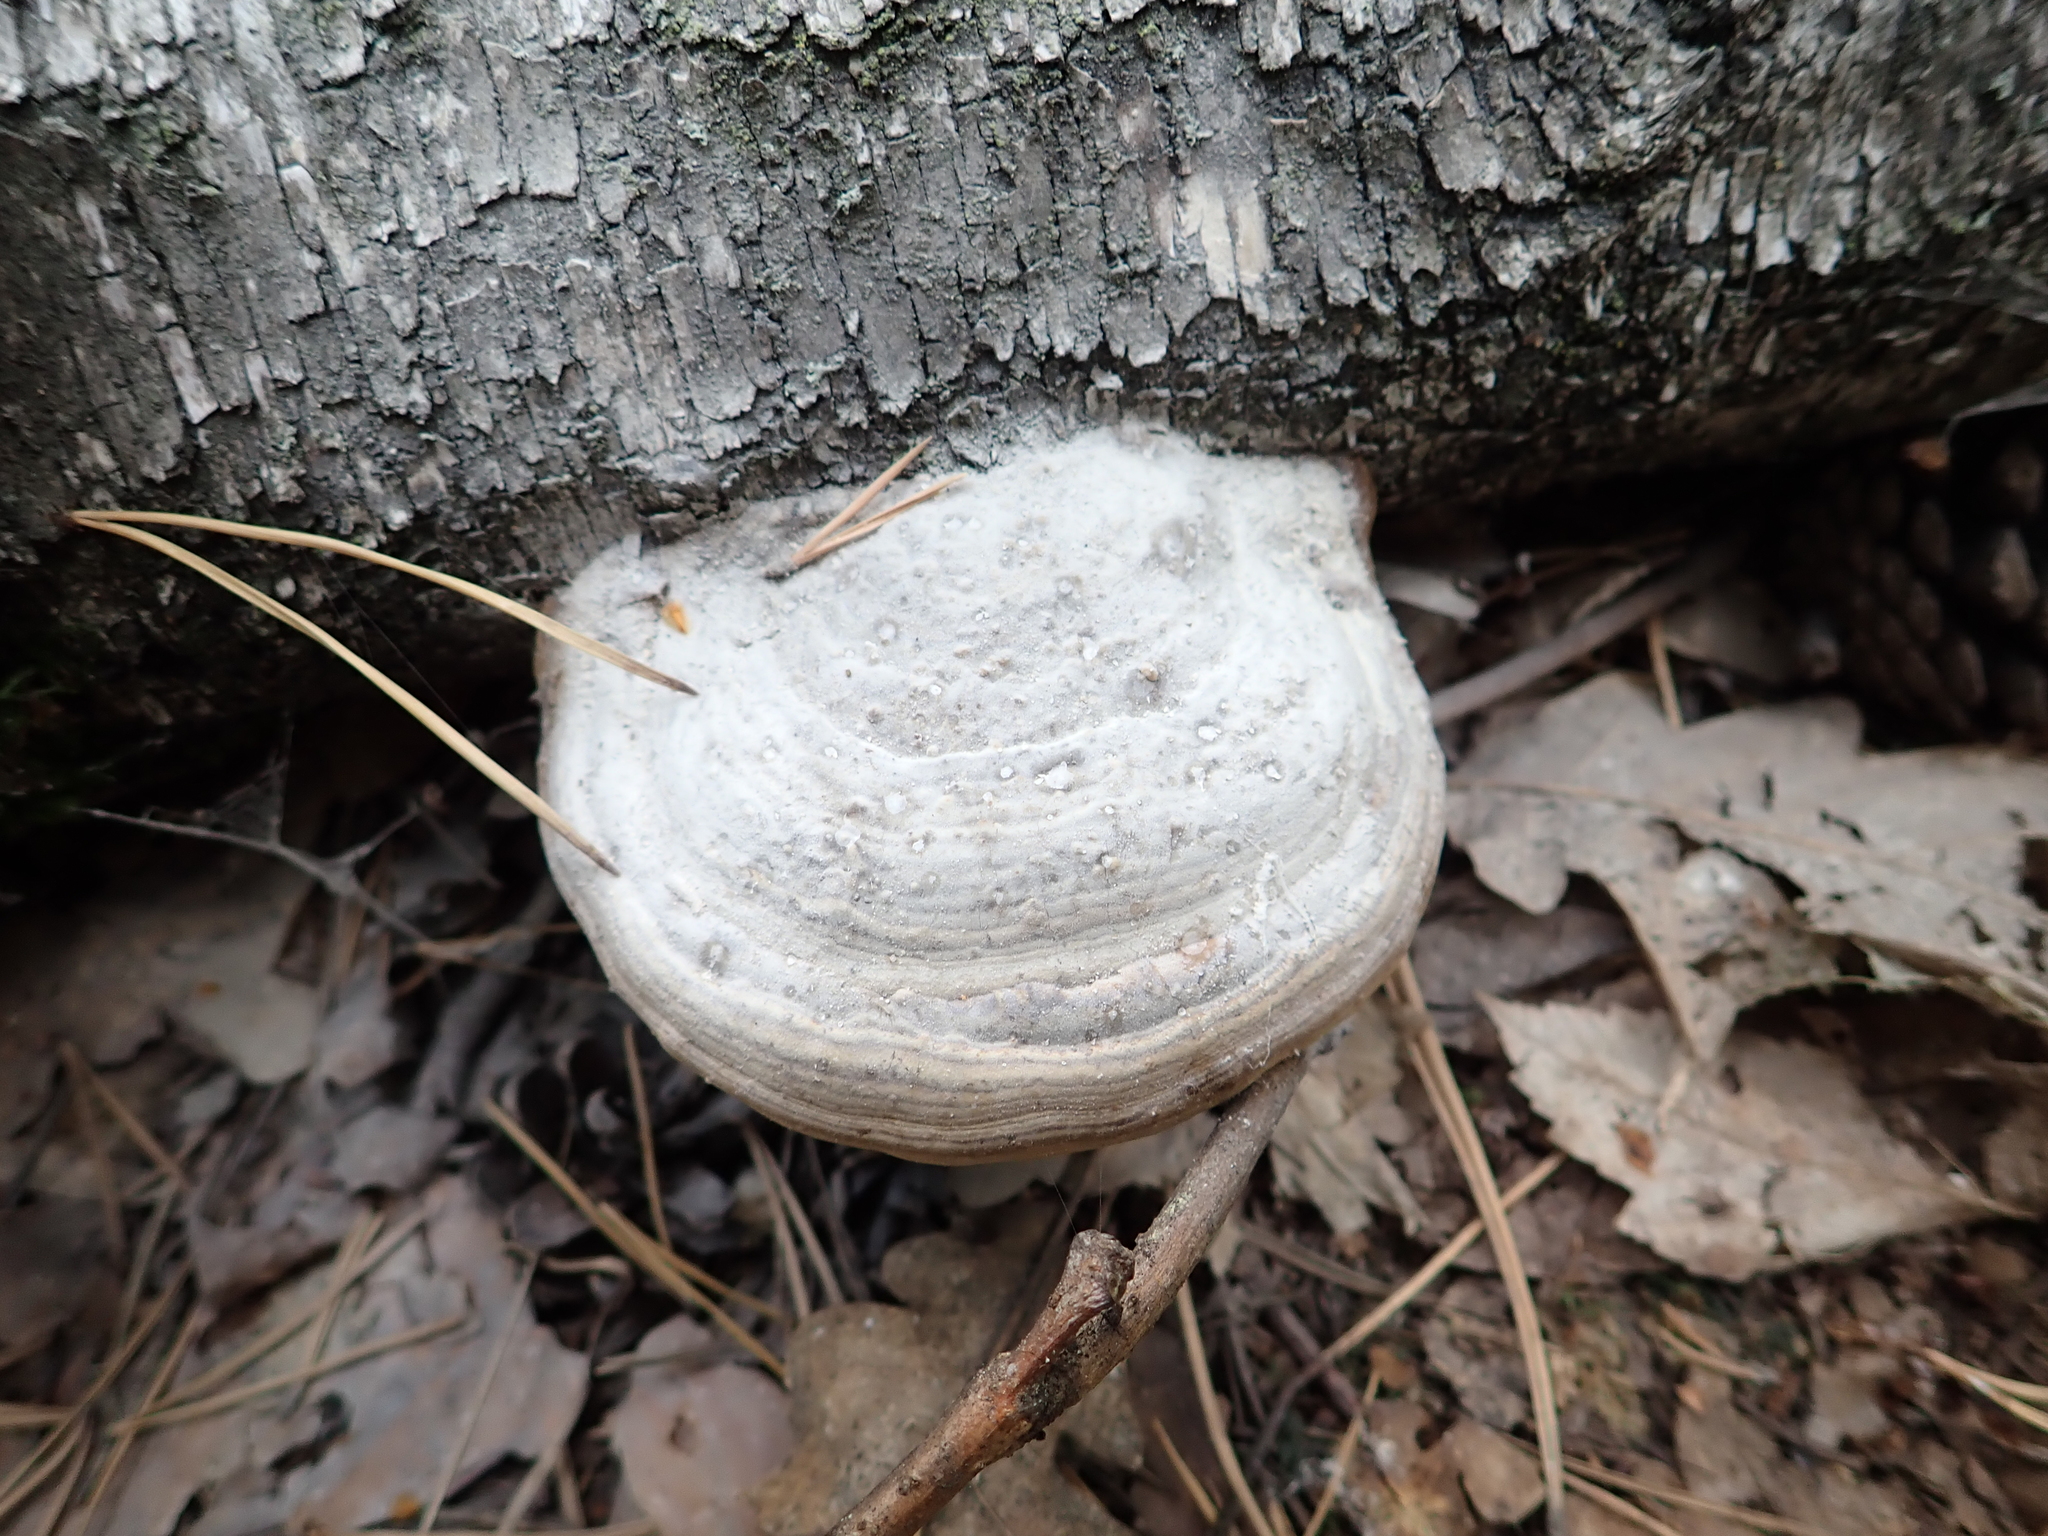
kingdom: Fungi
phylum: Basidiomycota
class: Agaricomycetes
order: Polyporales
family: Polyporaceae
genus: Fomes
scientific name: Fomes fomentarius
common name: Hoof fungus
